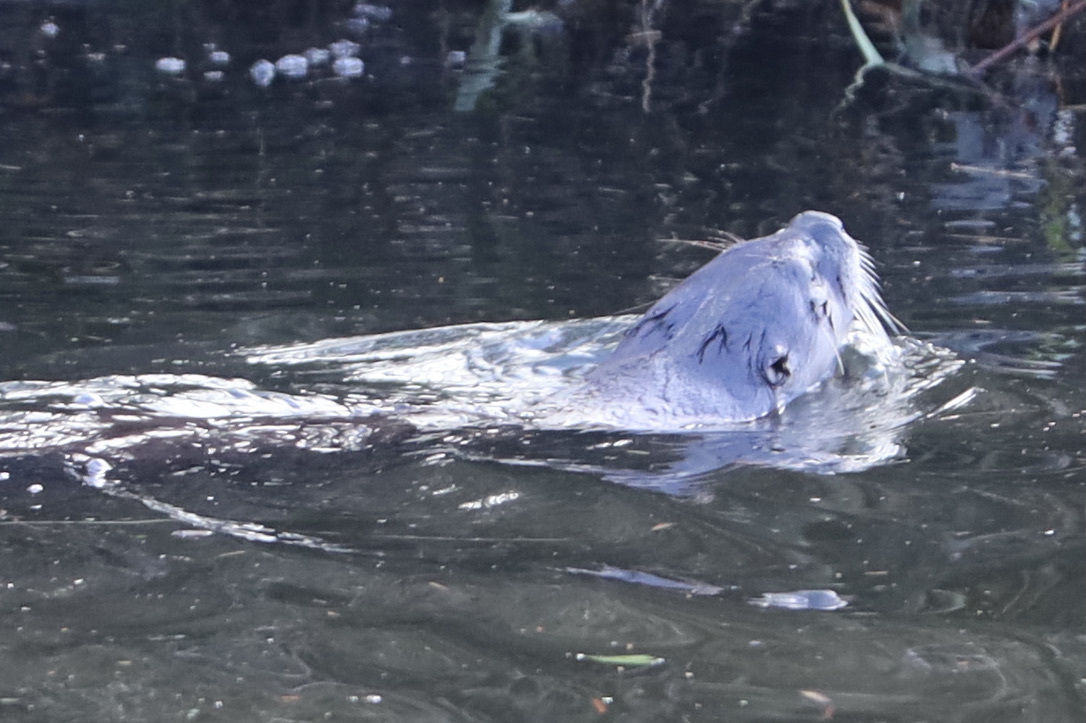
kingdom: Animalia
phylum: Chordata
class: Mammalia
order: Carnivora
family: Mustelidae
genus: Lontra
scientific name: Lontra canadensis
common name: North american river otter
